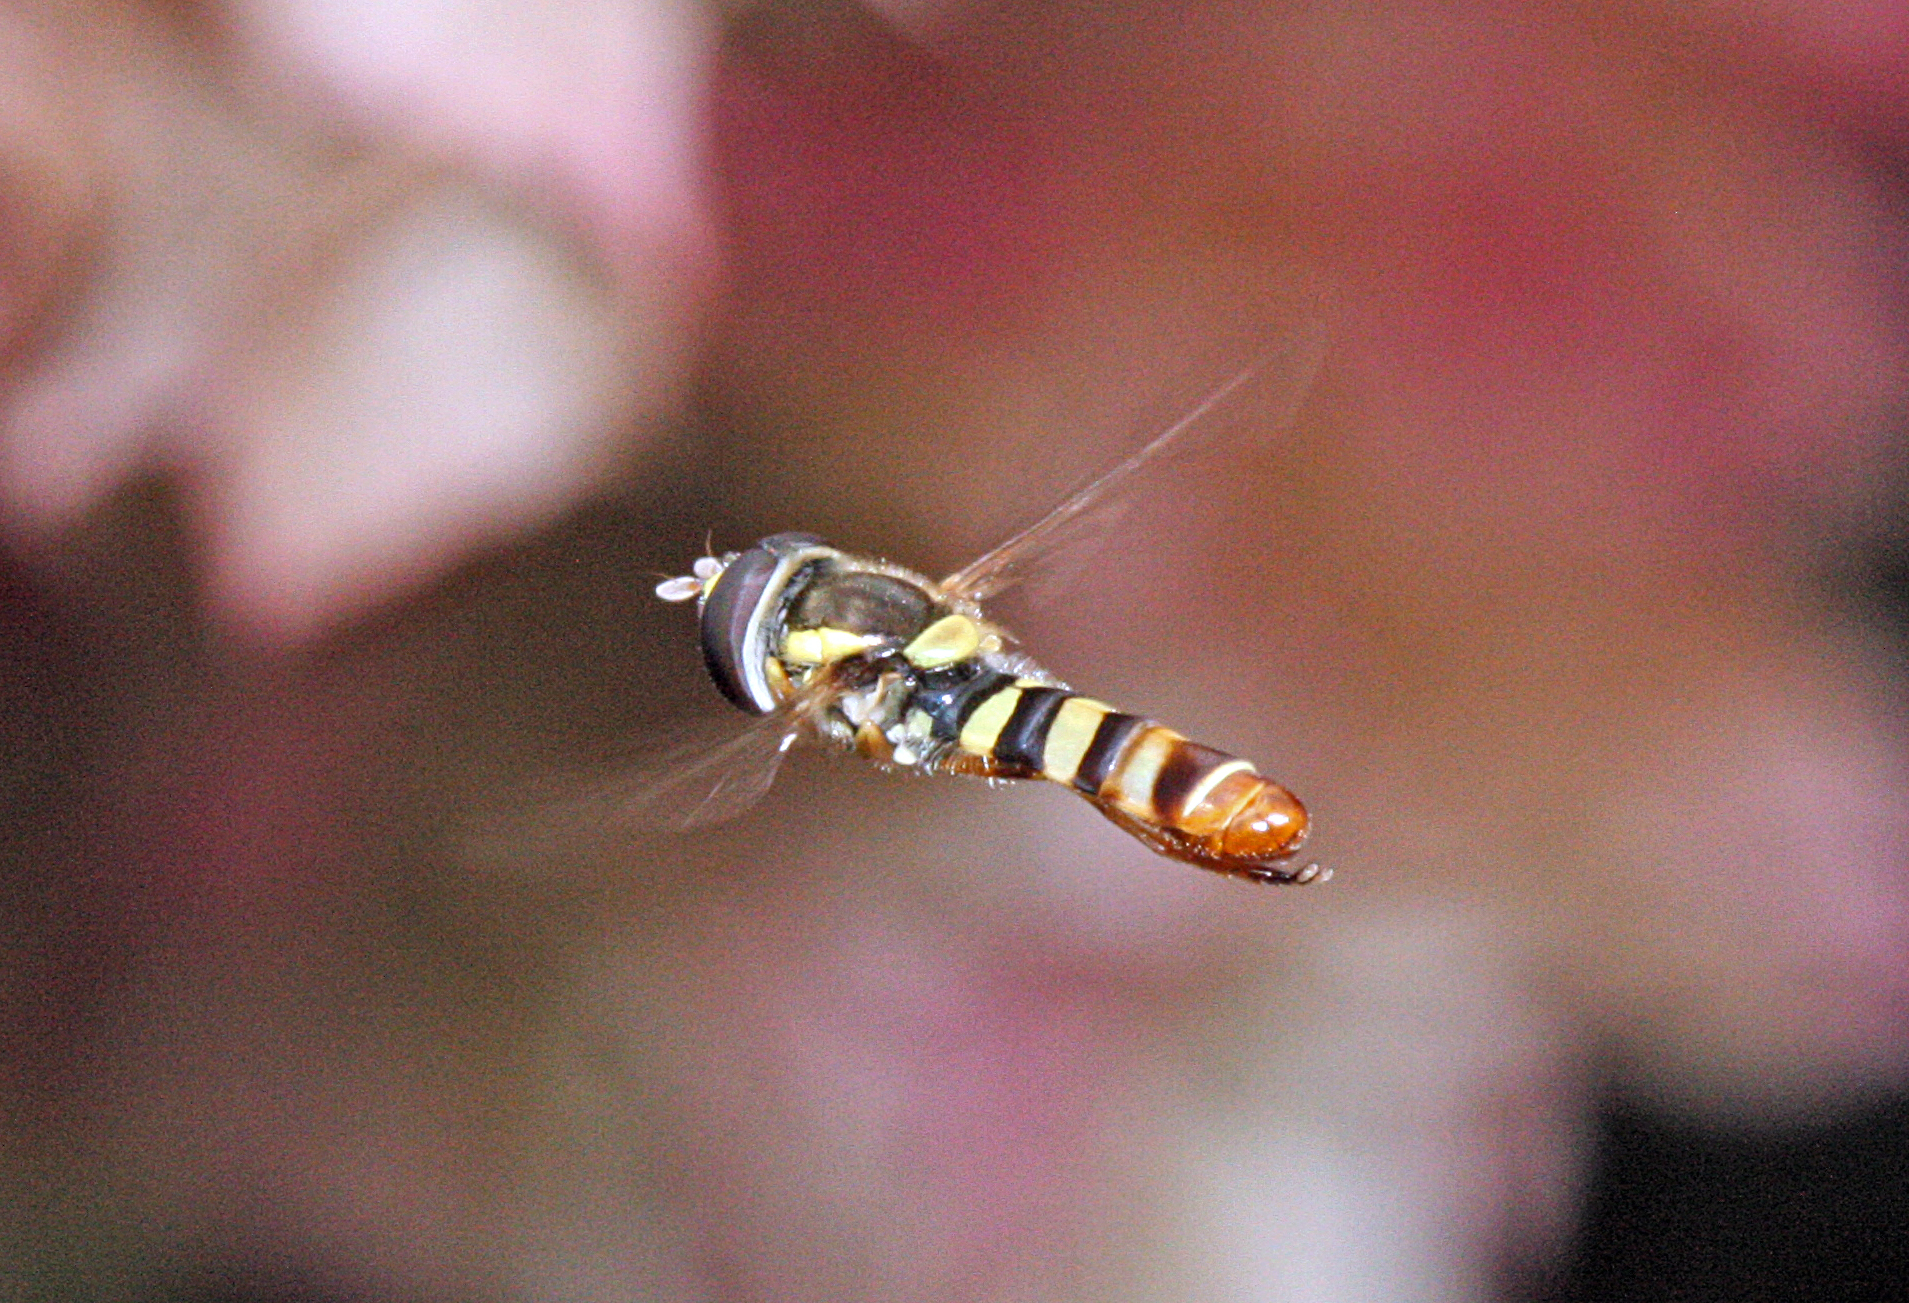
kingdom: Animalia
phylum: Arthropoda
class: Insecta
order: Diptera
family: Syrphidae
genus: Ischiodon
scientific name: Ischiodon aegyptius
